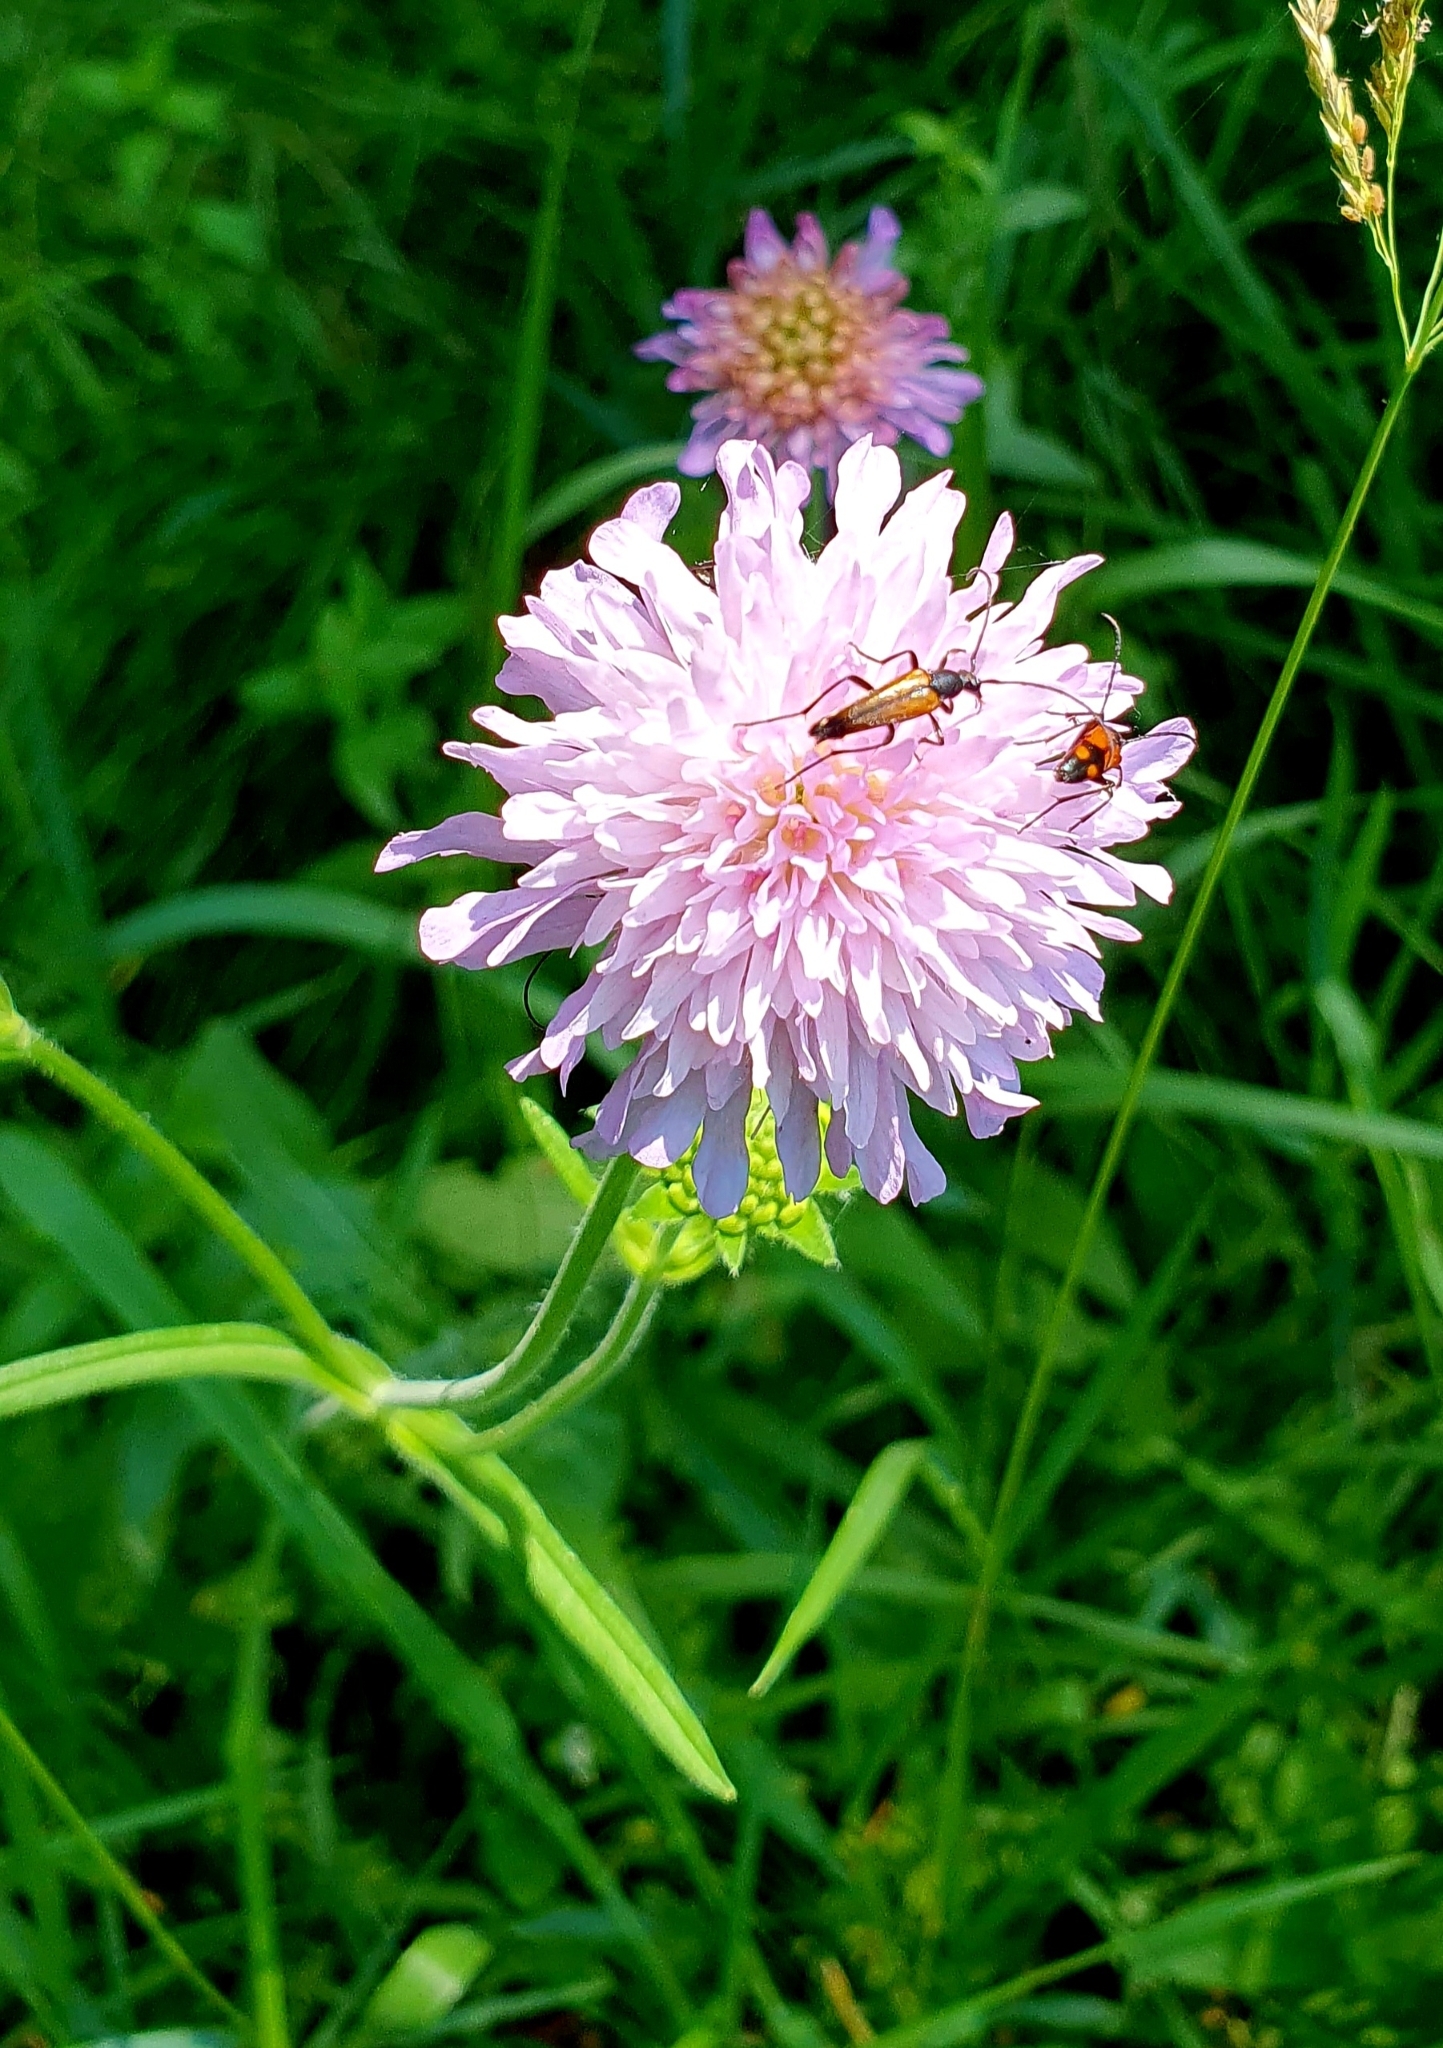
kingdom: Plantae
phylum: Tracheophyta
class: Magnoliopsida
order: Dipsacales
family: Caprifoliaceae
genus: Knautia
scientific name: Knautia arvensis
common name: Field scabiosa
